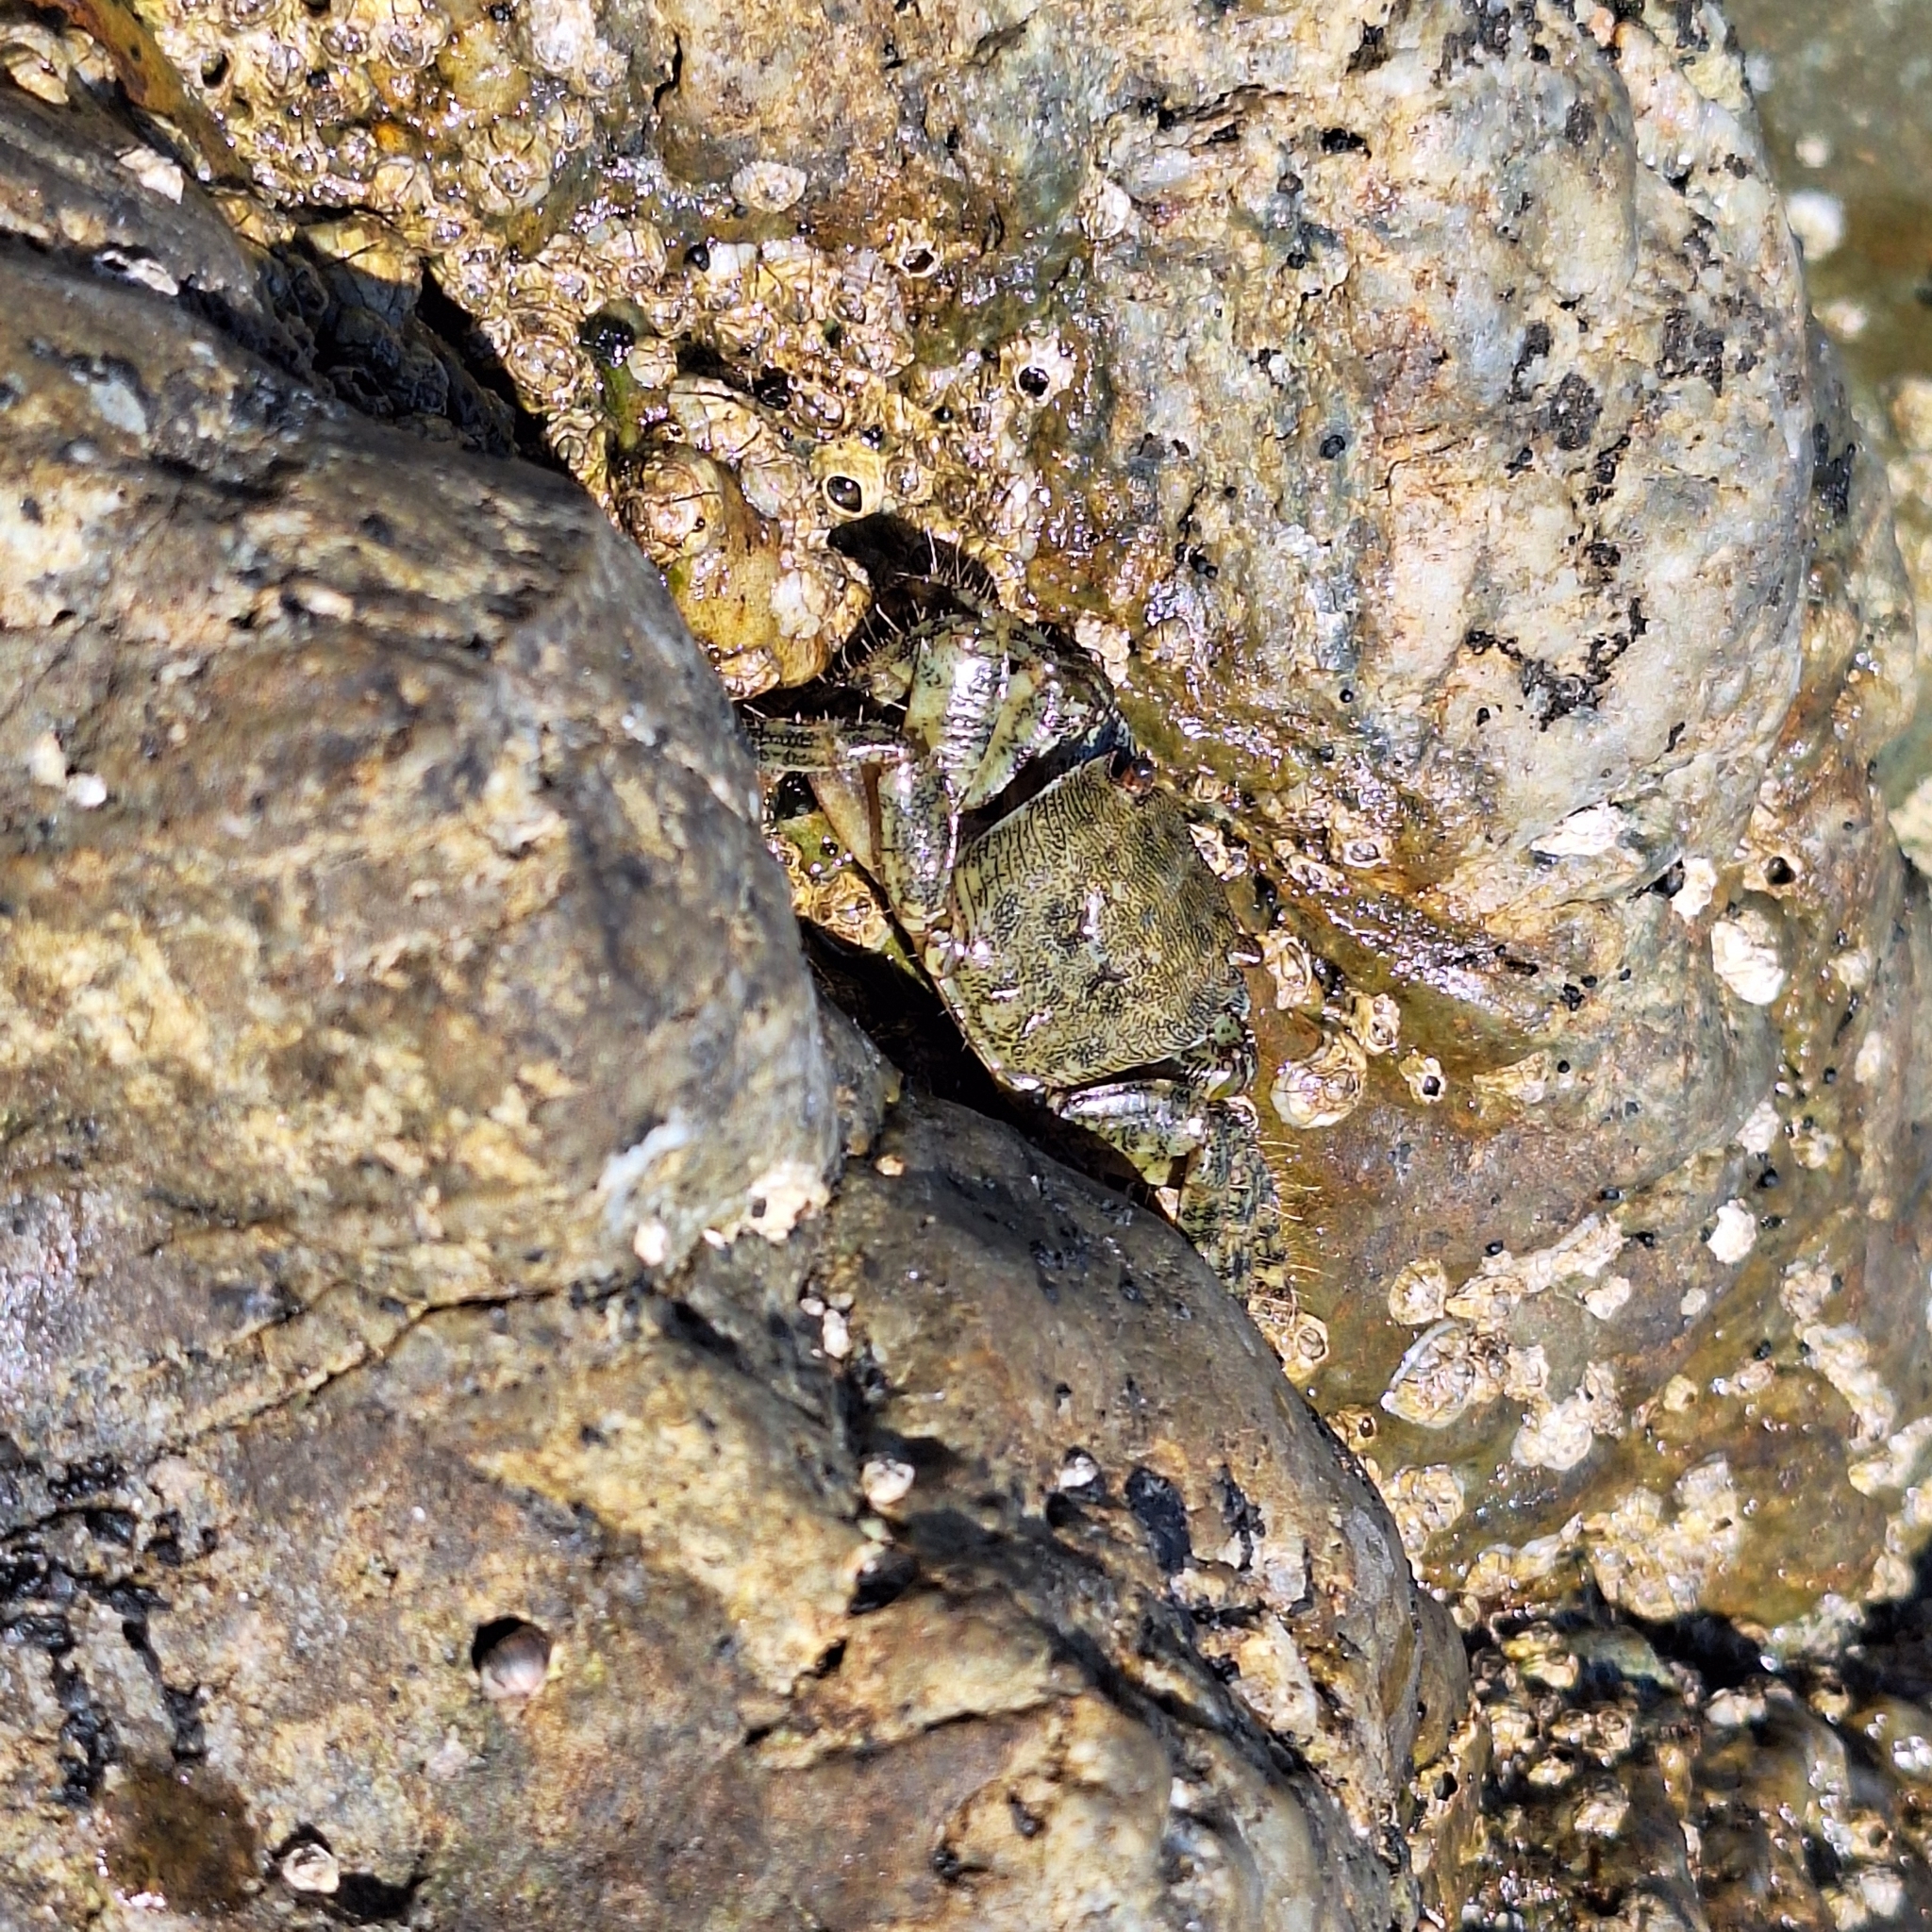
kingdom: Animalia
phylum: Arthropoda
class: Malacostraca
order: Decapoda
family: Grapsidae
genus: Pachygrapsus
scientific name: Pachygrapsus marmoratus
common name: Marbled rock crab
